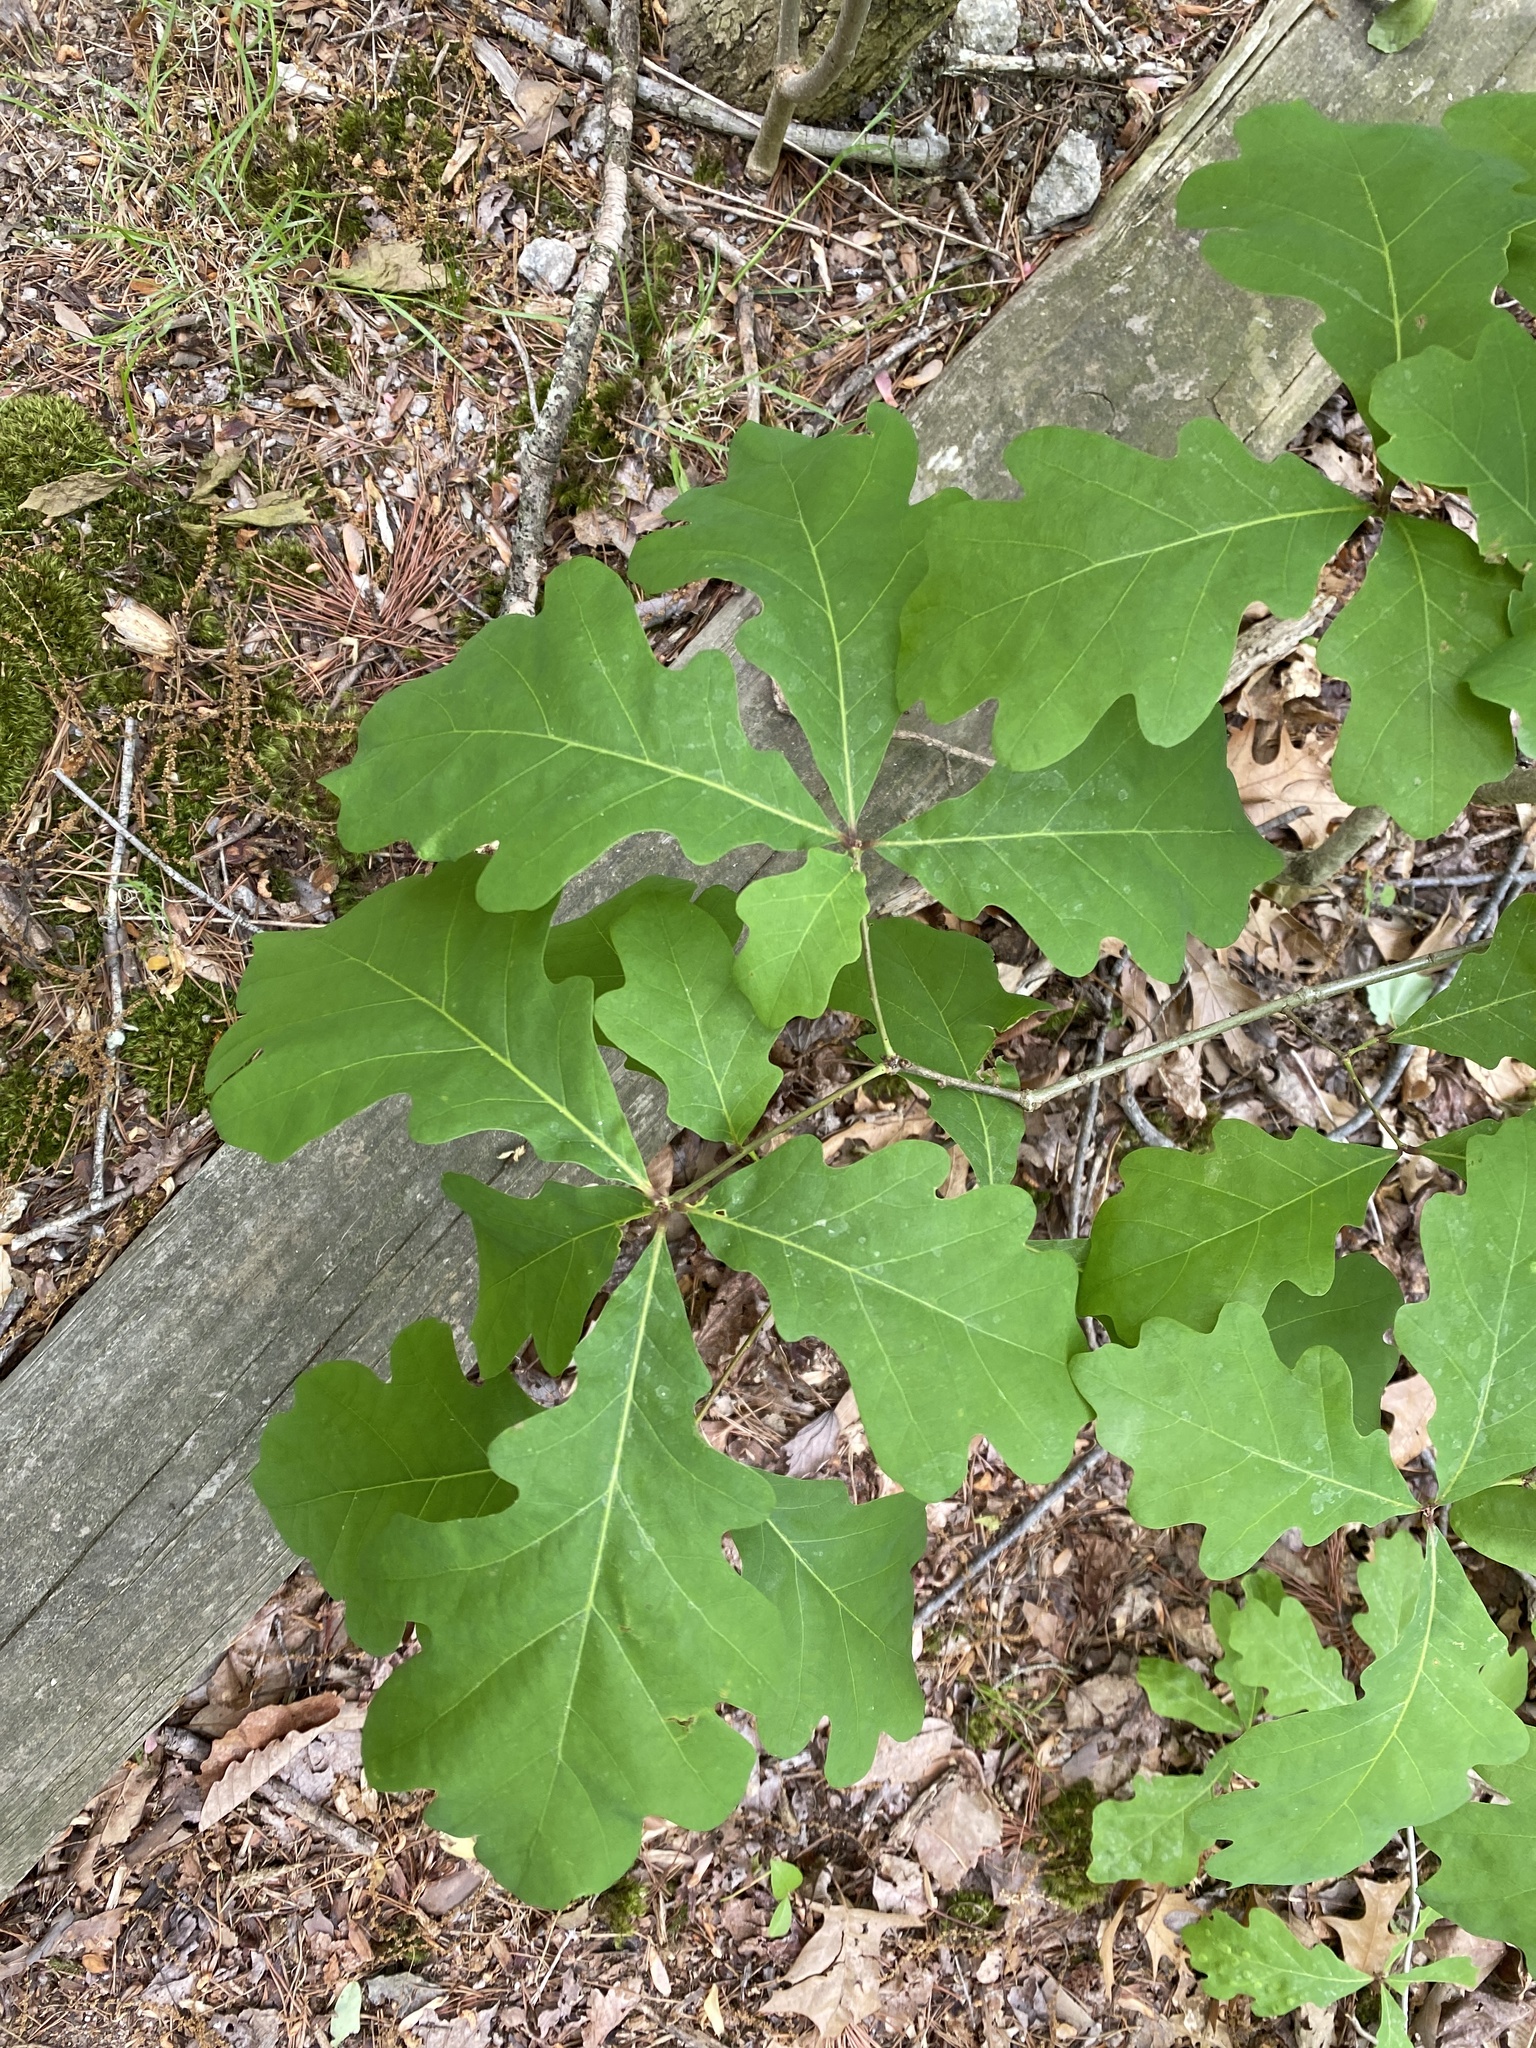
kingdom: Plantae
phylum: Tracheophyta
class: Magnoliopsida
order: Fagales
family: Fagaceae
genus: Quercus
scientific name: Quercus alba
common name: White oak
